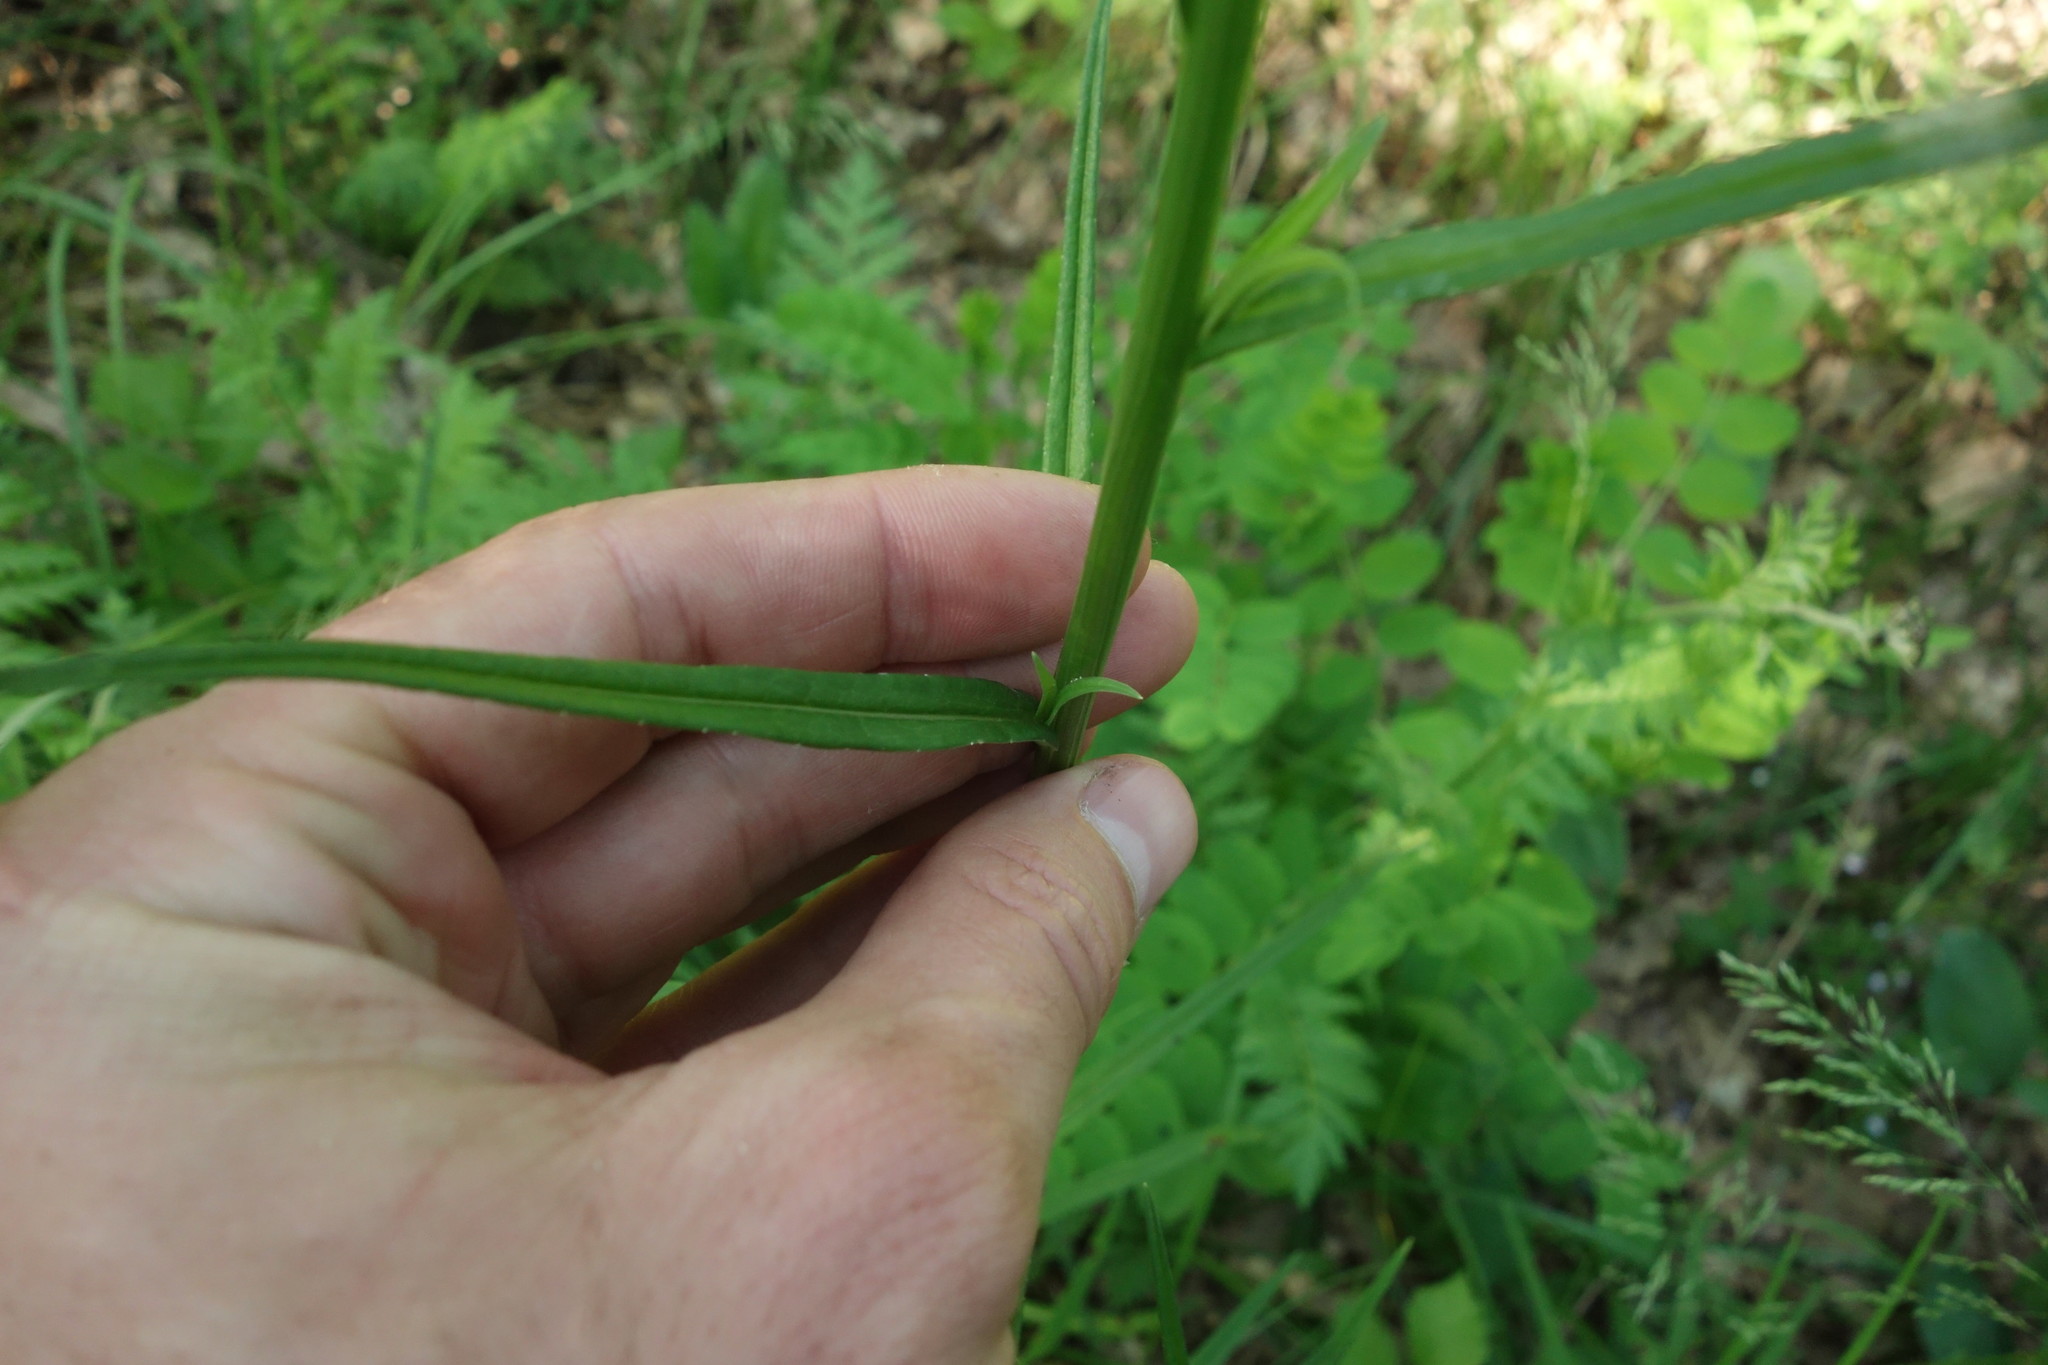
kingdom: Plantae
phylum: Tracheophyta
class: Magnoliopsida
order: Asterales
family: Campanulaceae
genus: Campanula
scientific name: Campanula persicifolia
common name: Peach-leaved bellflower
